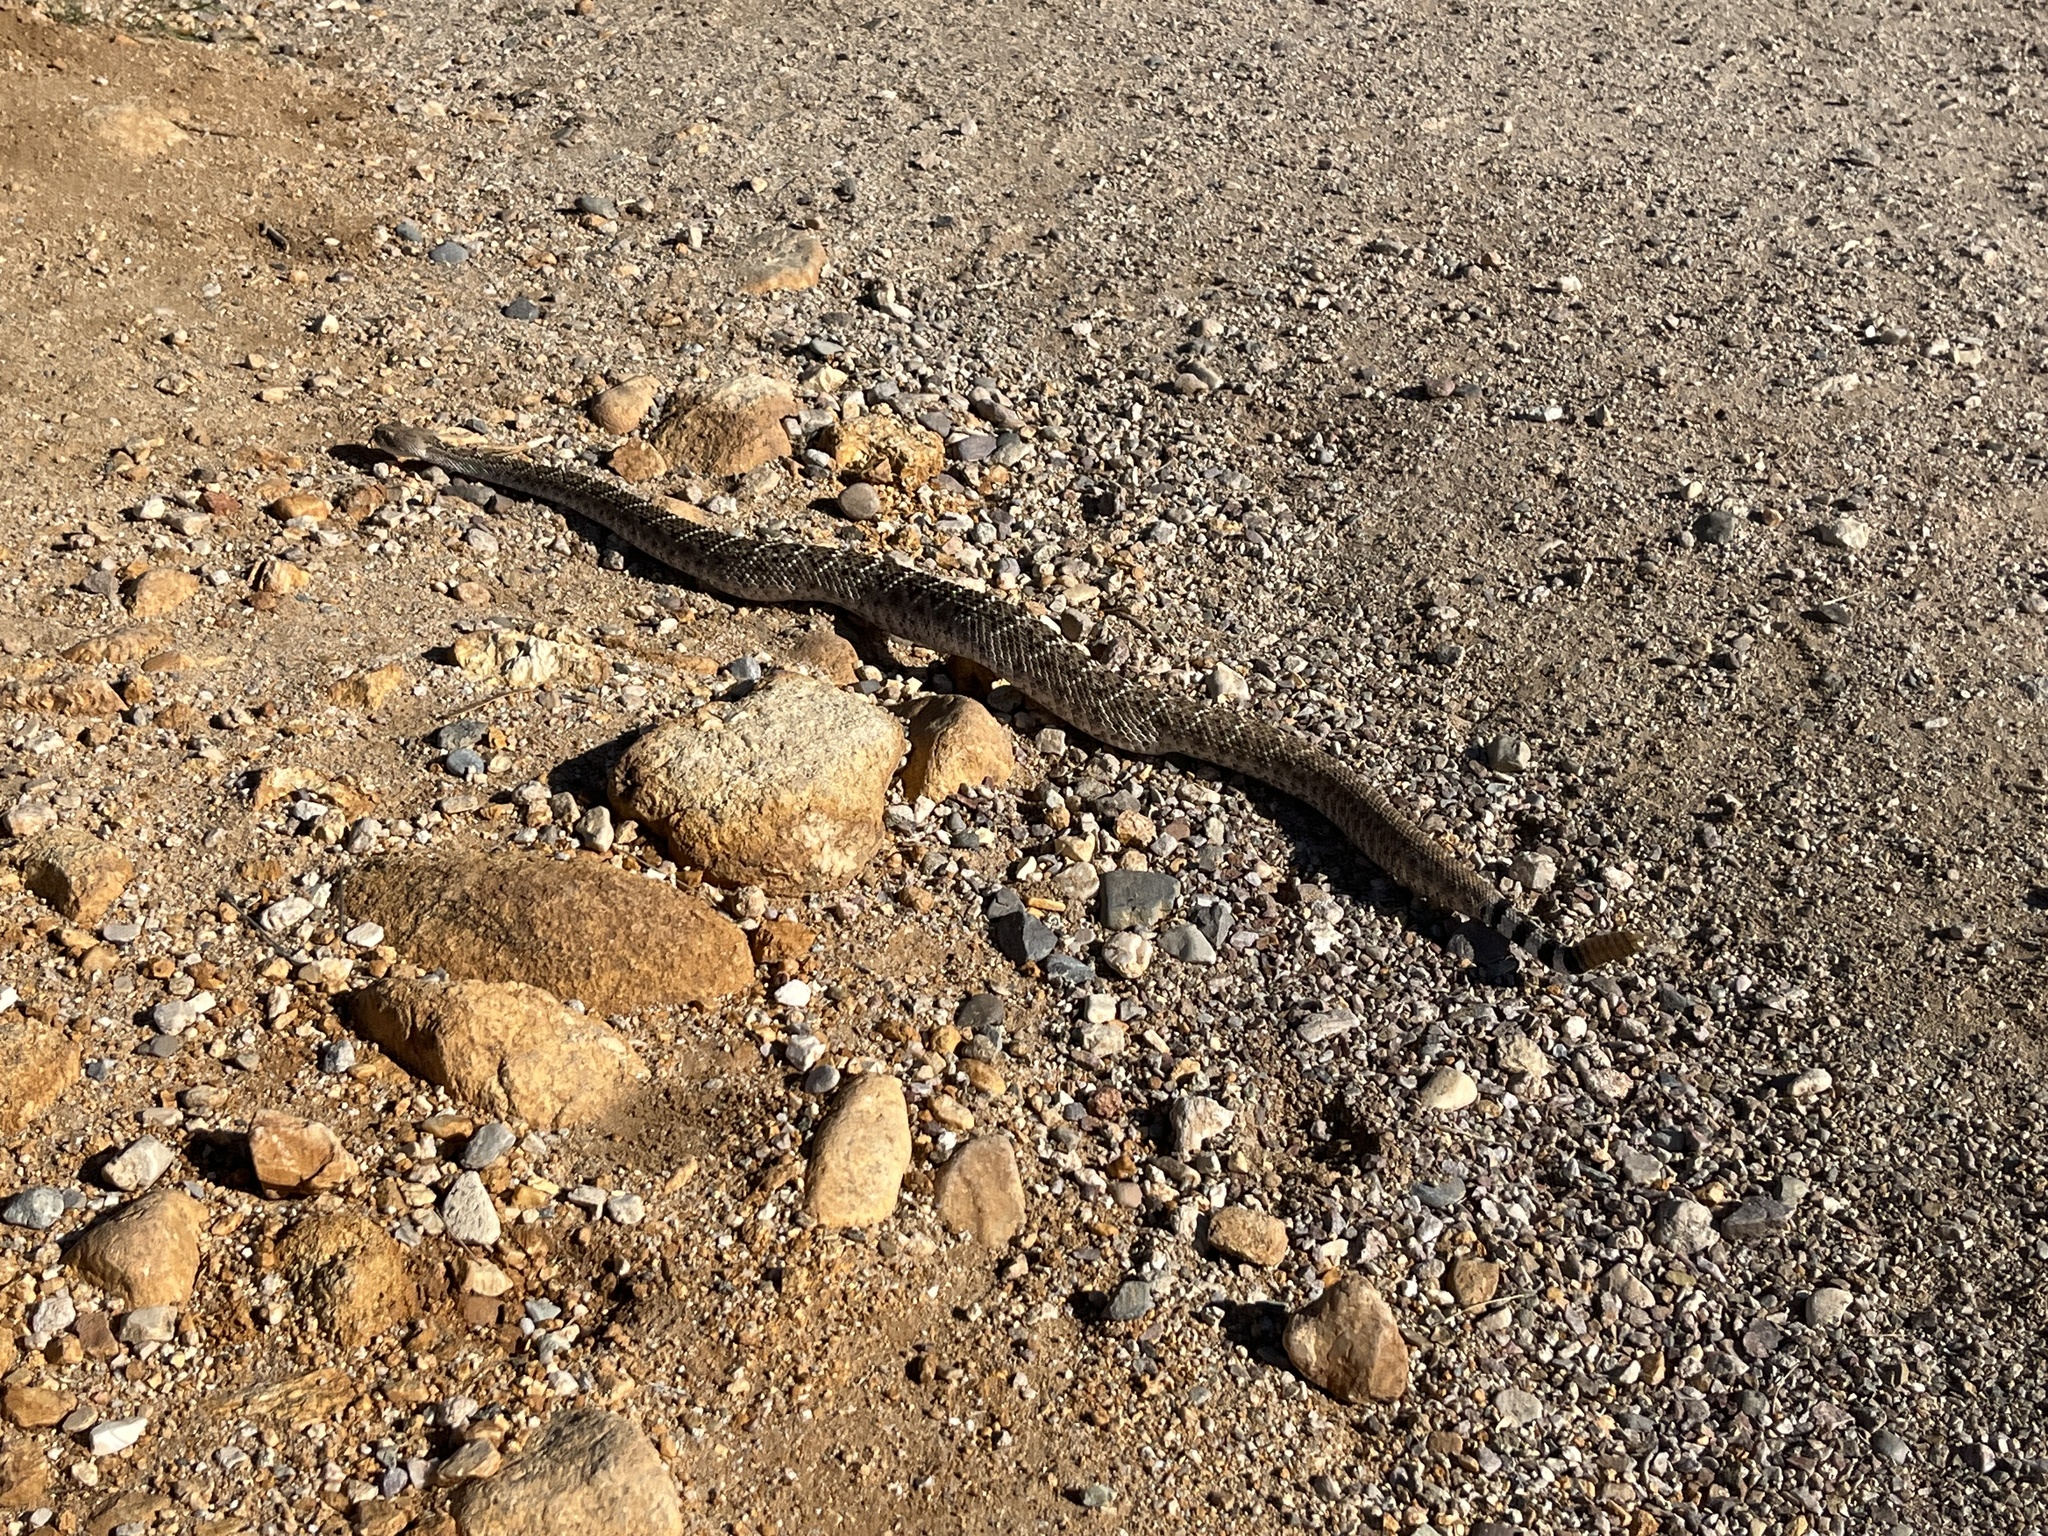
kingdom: Animalia
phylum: Chordata
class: Squamata
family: Viperidae
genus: Crotalus
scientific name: Crotalus atrox
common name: Western diamond-backed rattlesnake
